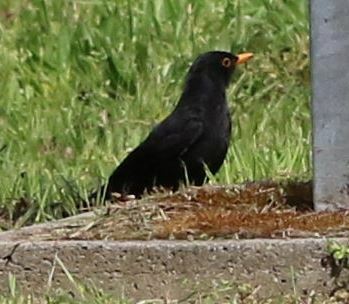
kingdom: Animalia
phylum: Chordata
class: Aves
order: Passeriformes
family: Turdidae
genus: Turdus
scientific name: Turdus merula
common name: Common blackbird
